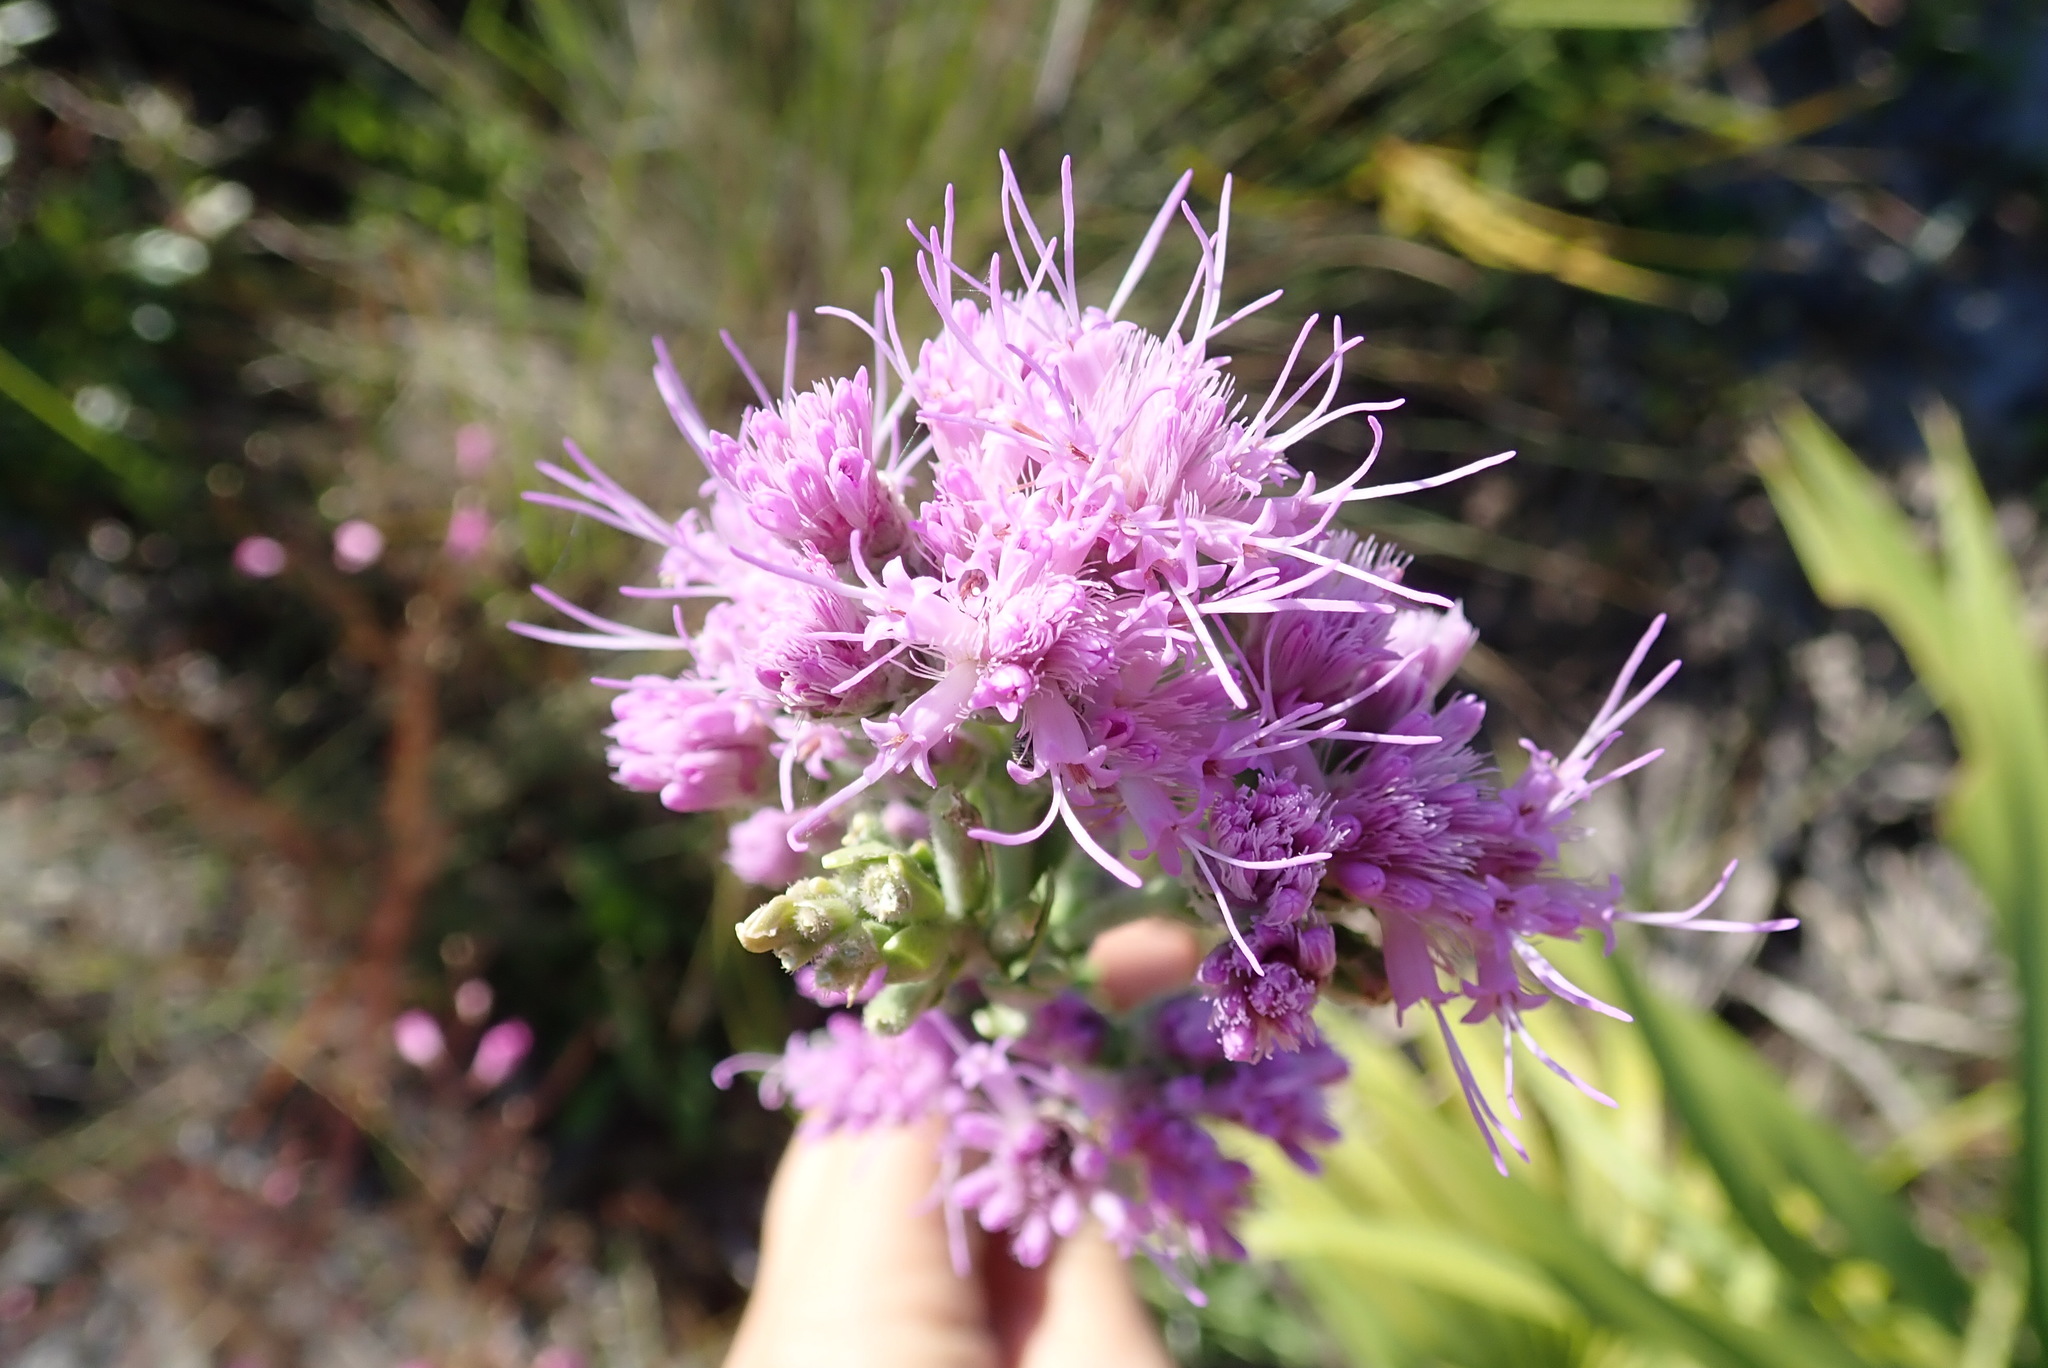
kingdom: Plantae
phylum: Tracheophyta
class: Magnoliopsida
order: Asterales
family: Asteraceae
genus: Carphephorus
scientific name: Carphephorus corymbosus
